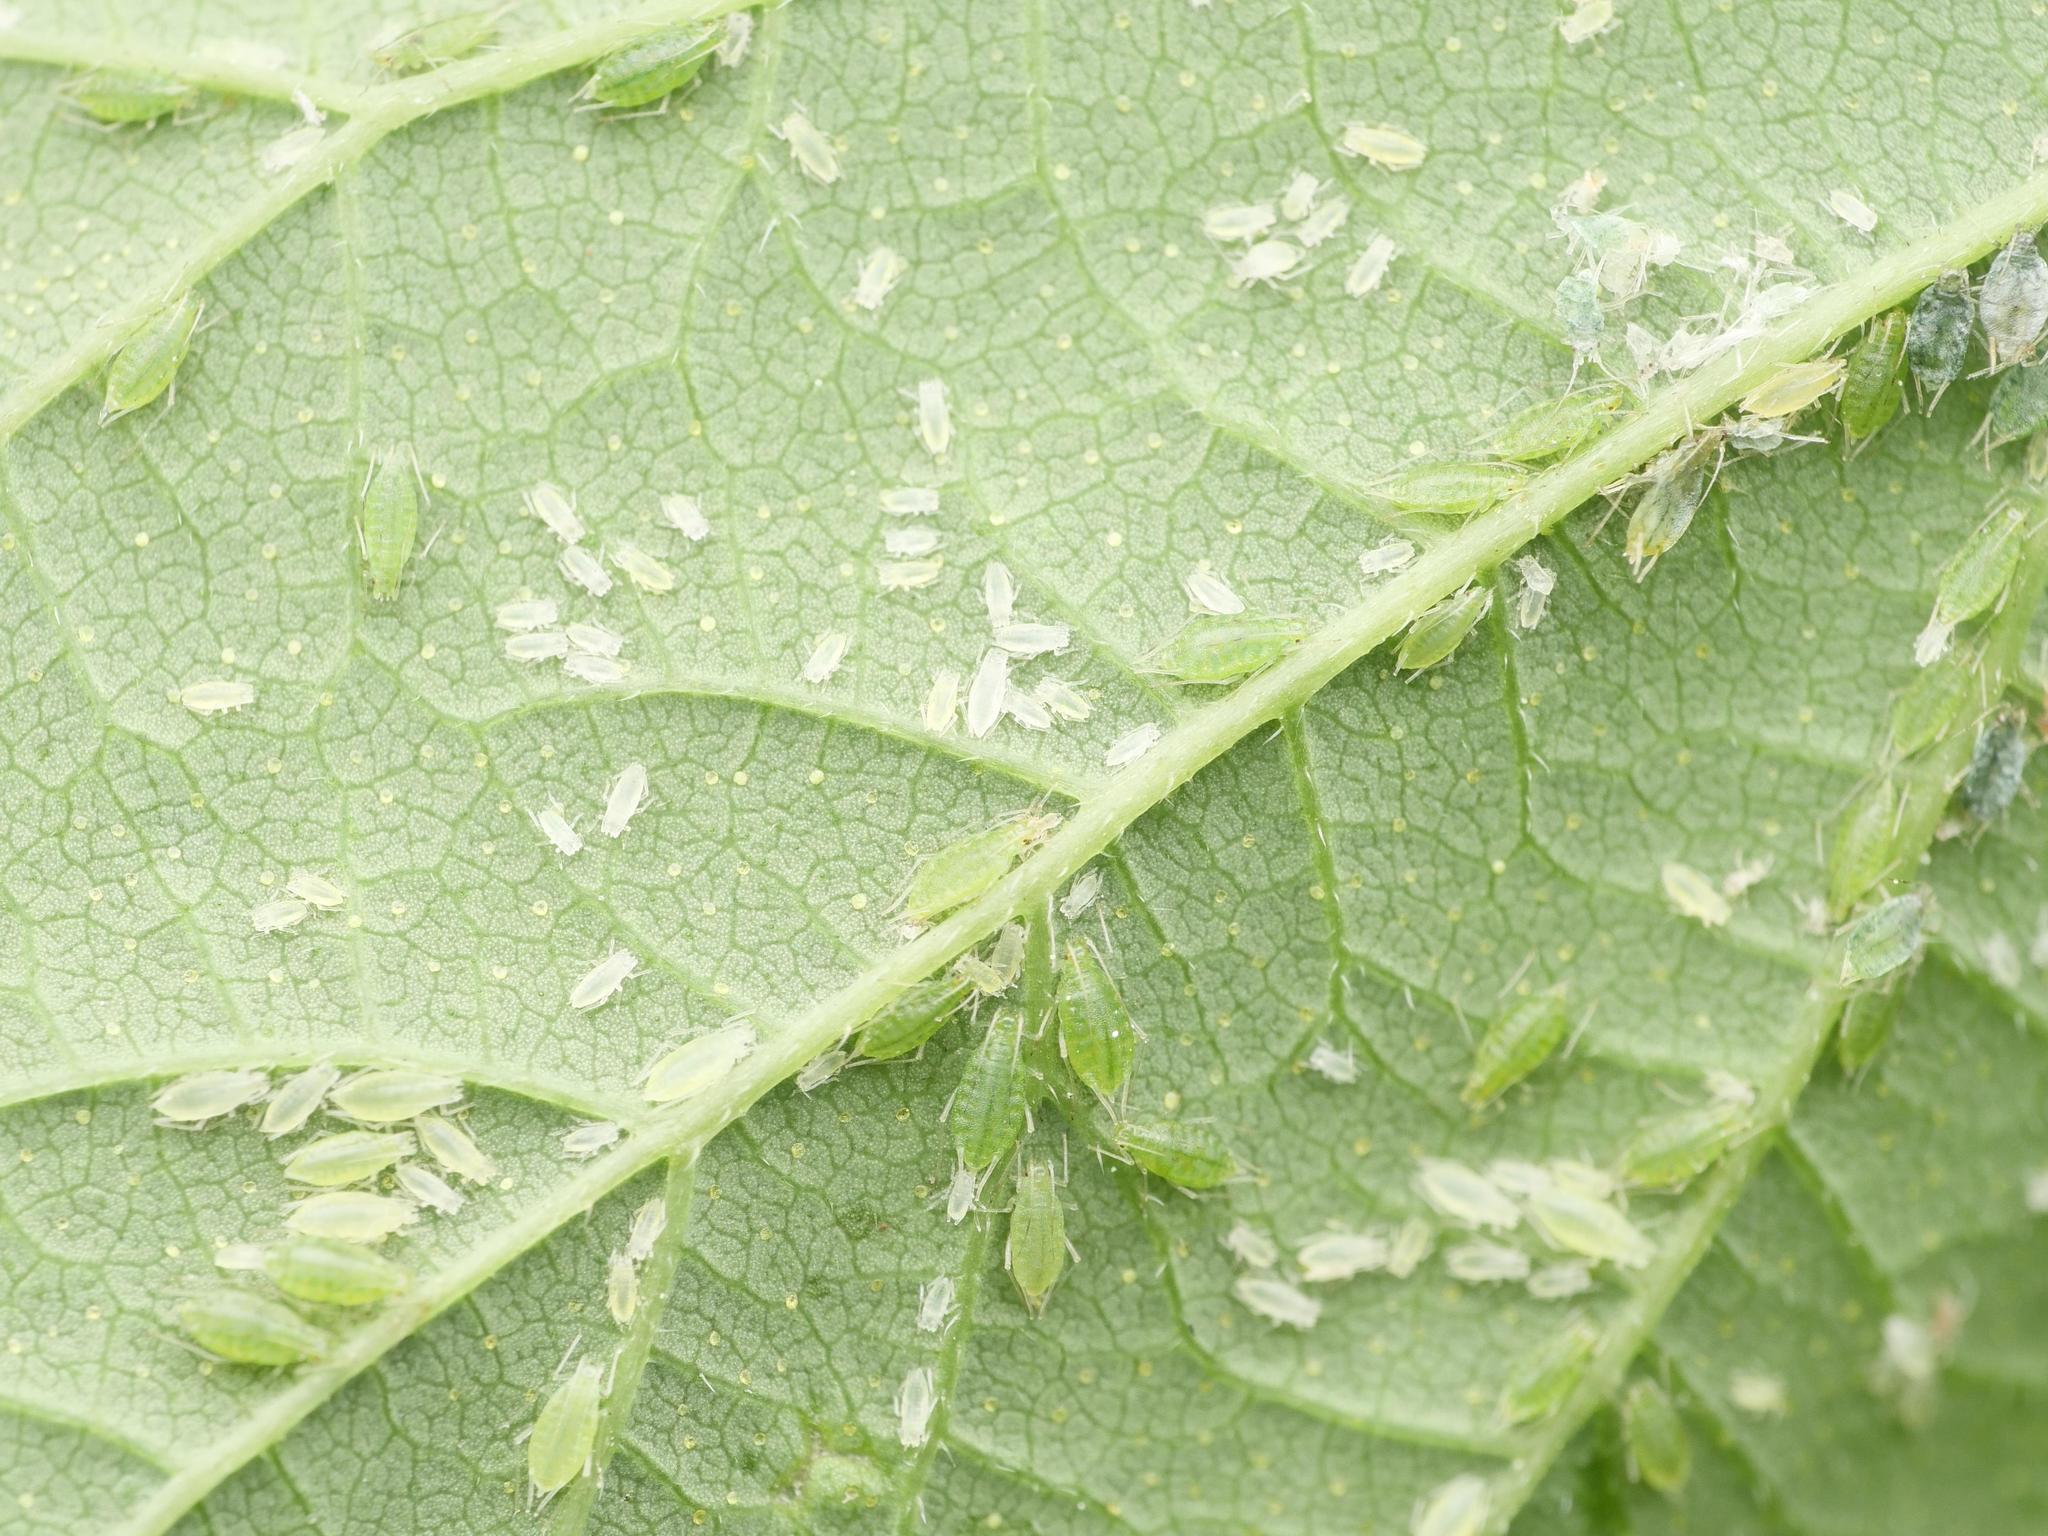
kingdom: Animalia
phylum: Arthropoda
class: Insecta
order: Hemiptera
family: Aphididae
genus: Phorodon
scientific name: Phorodon humuli
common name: Hop aphid
